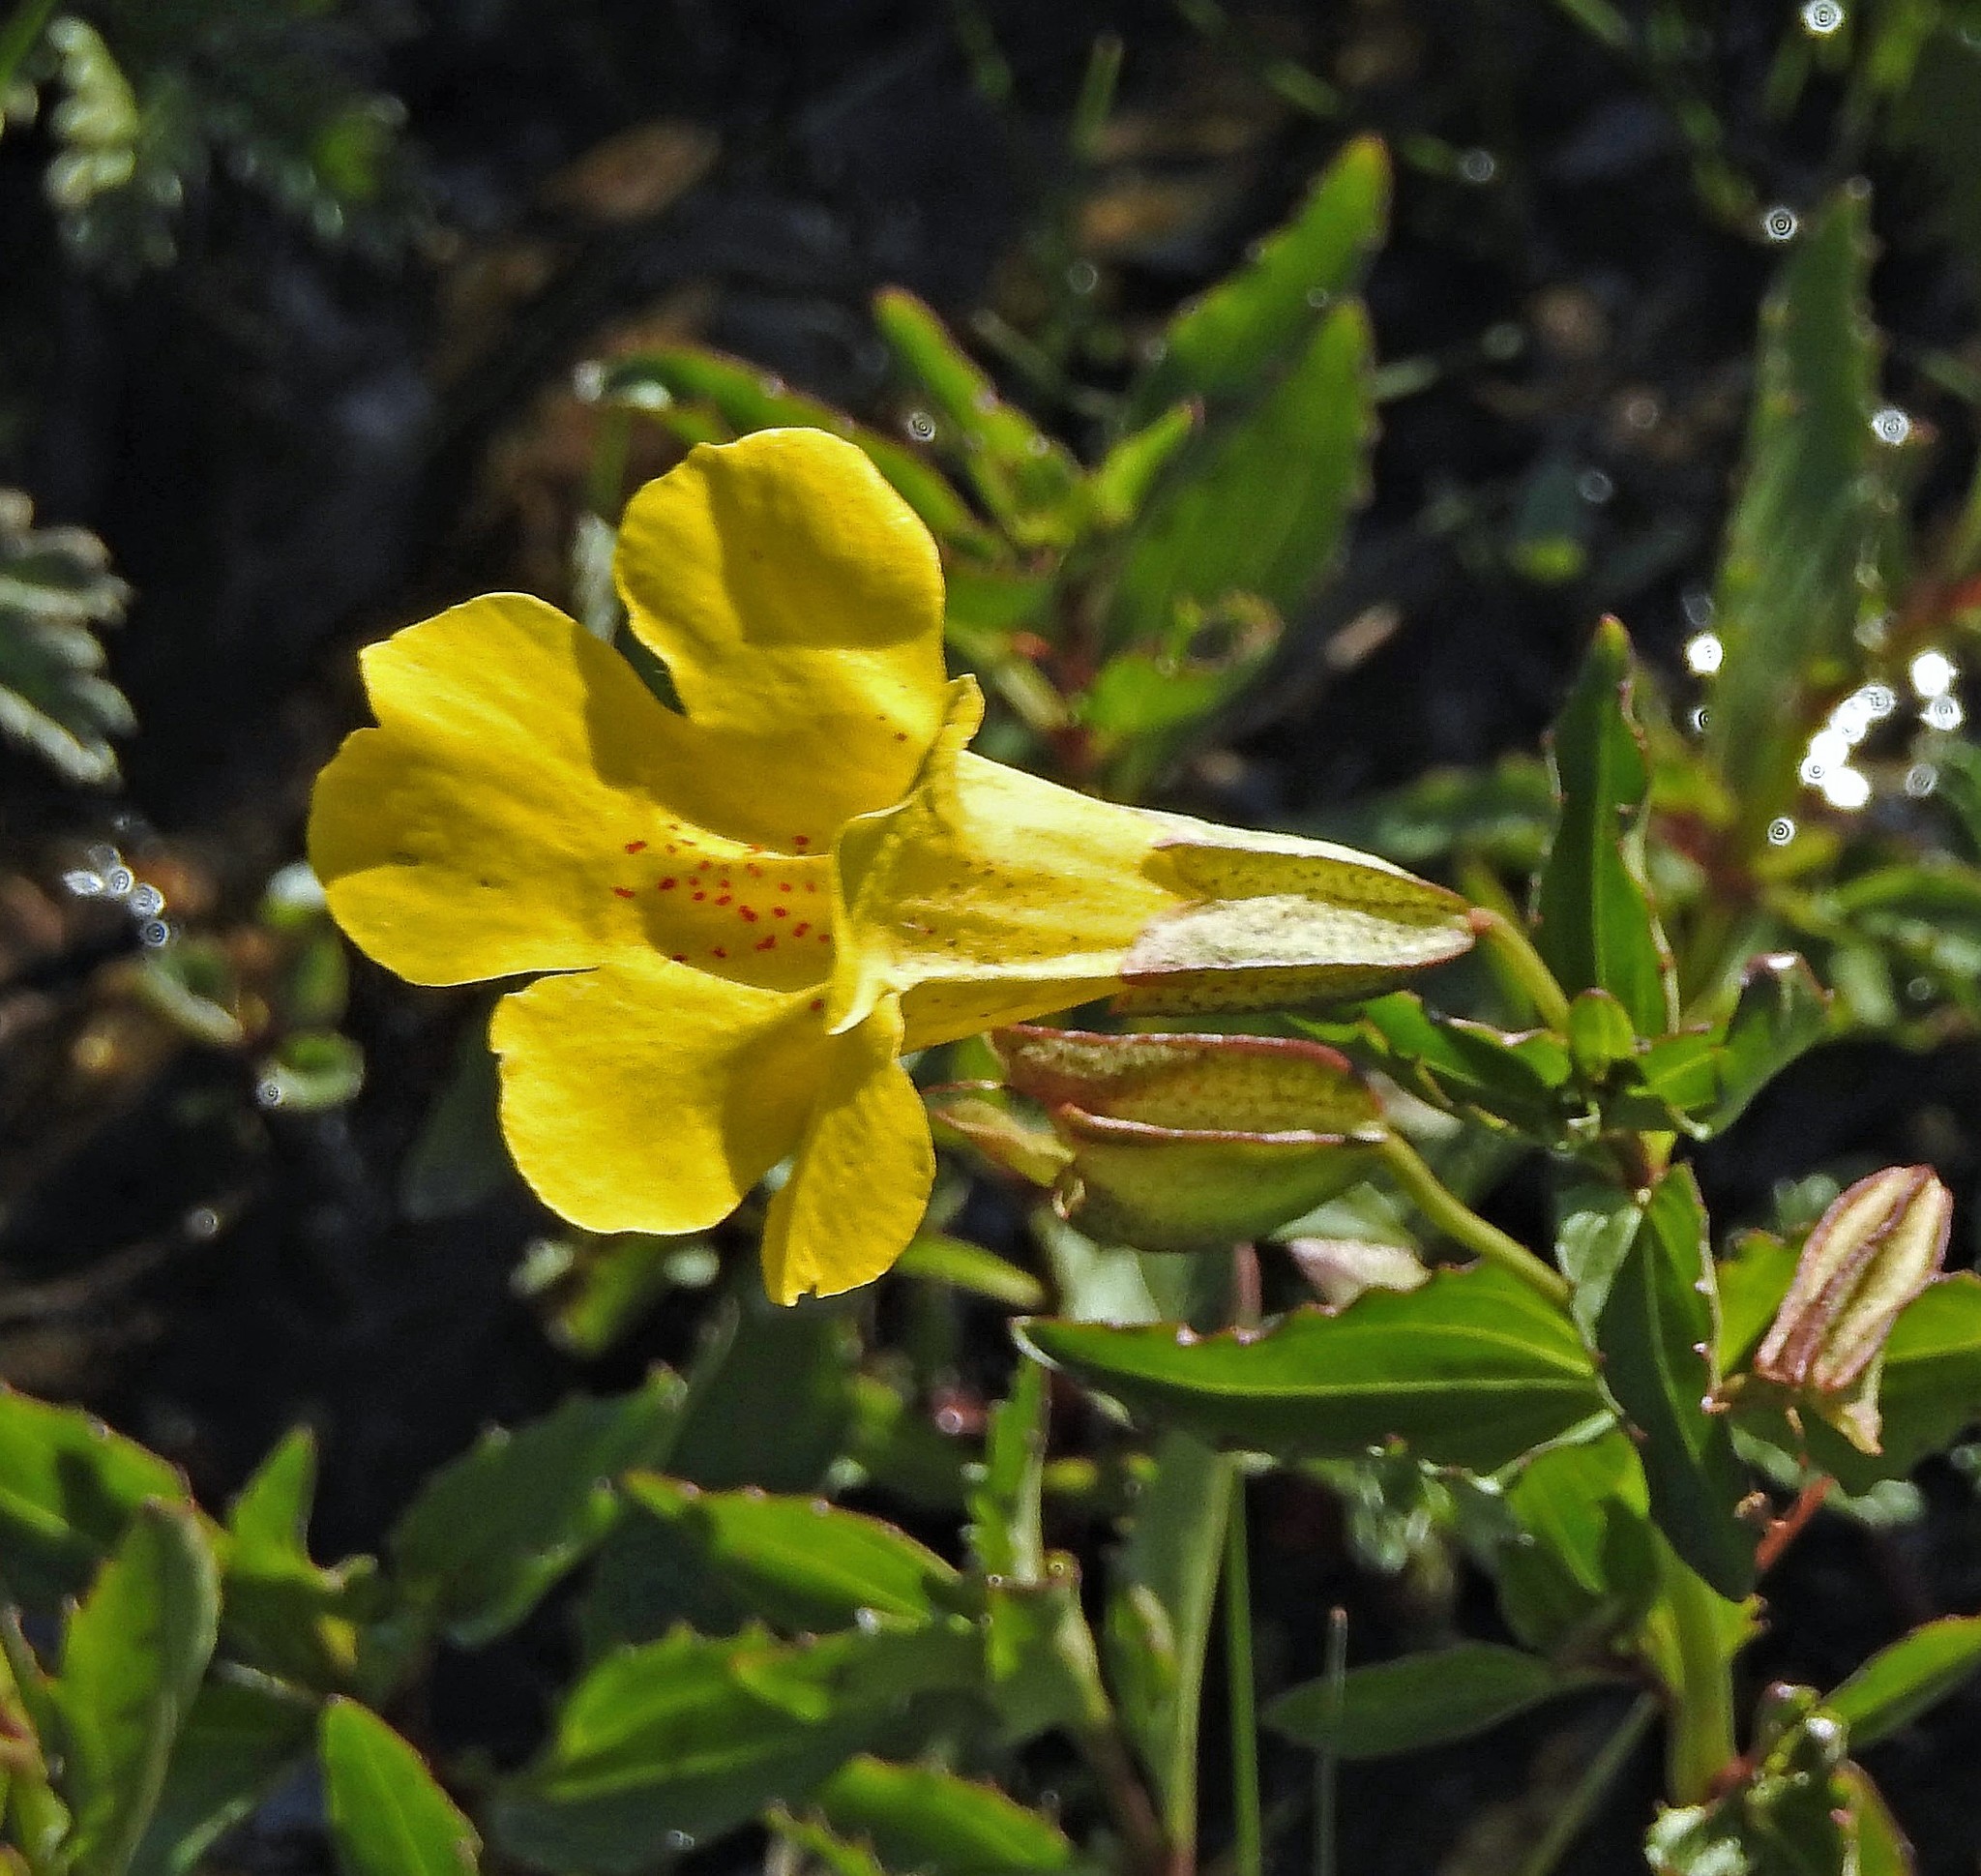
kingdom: Plantae
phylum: Tracheophyta
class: Magnoliopsida
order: Lamiales
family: Phrymaceae
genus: Erythranthe
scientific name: Erythranthe lutea
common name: Yellow monkey-flower
